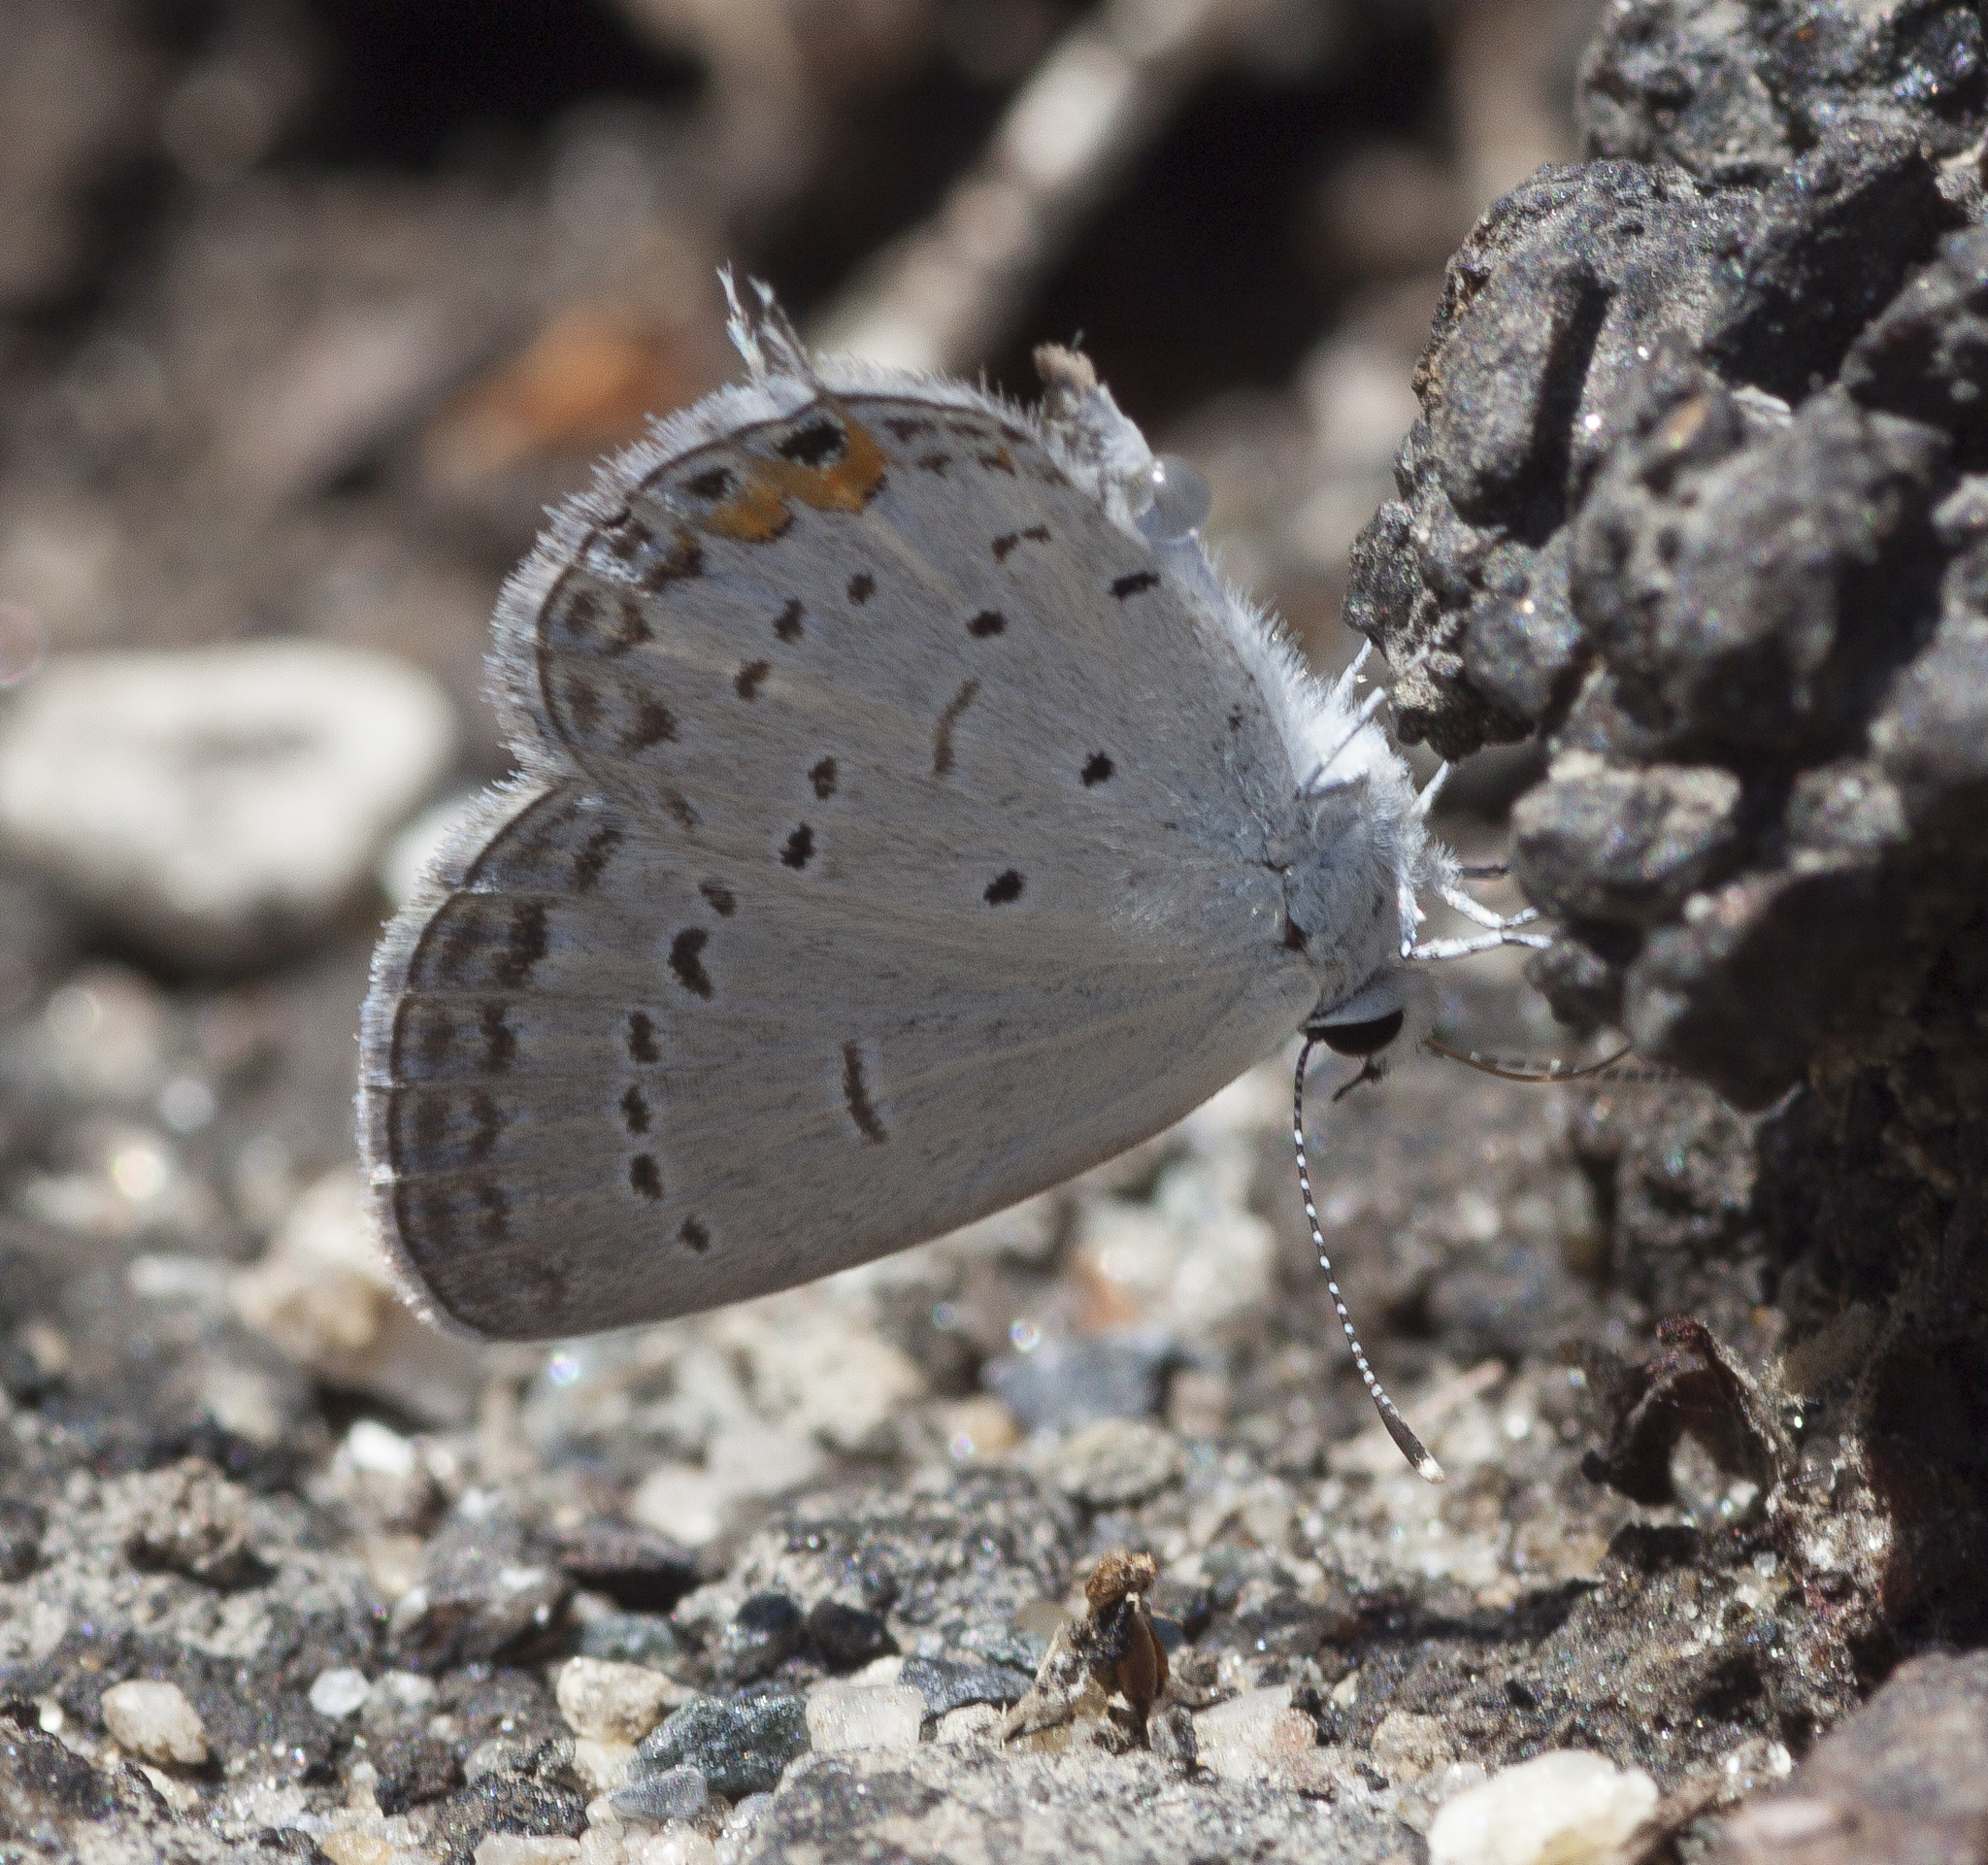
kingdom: Animalia
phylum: Arthropoda
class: Insecta
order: Lepidoptera
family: Lycaenidae
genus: Elkalyce
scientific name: Elkalyce comyntas
